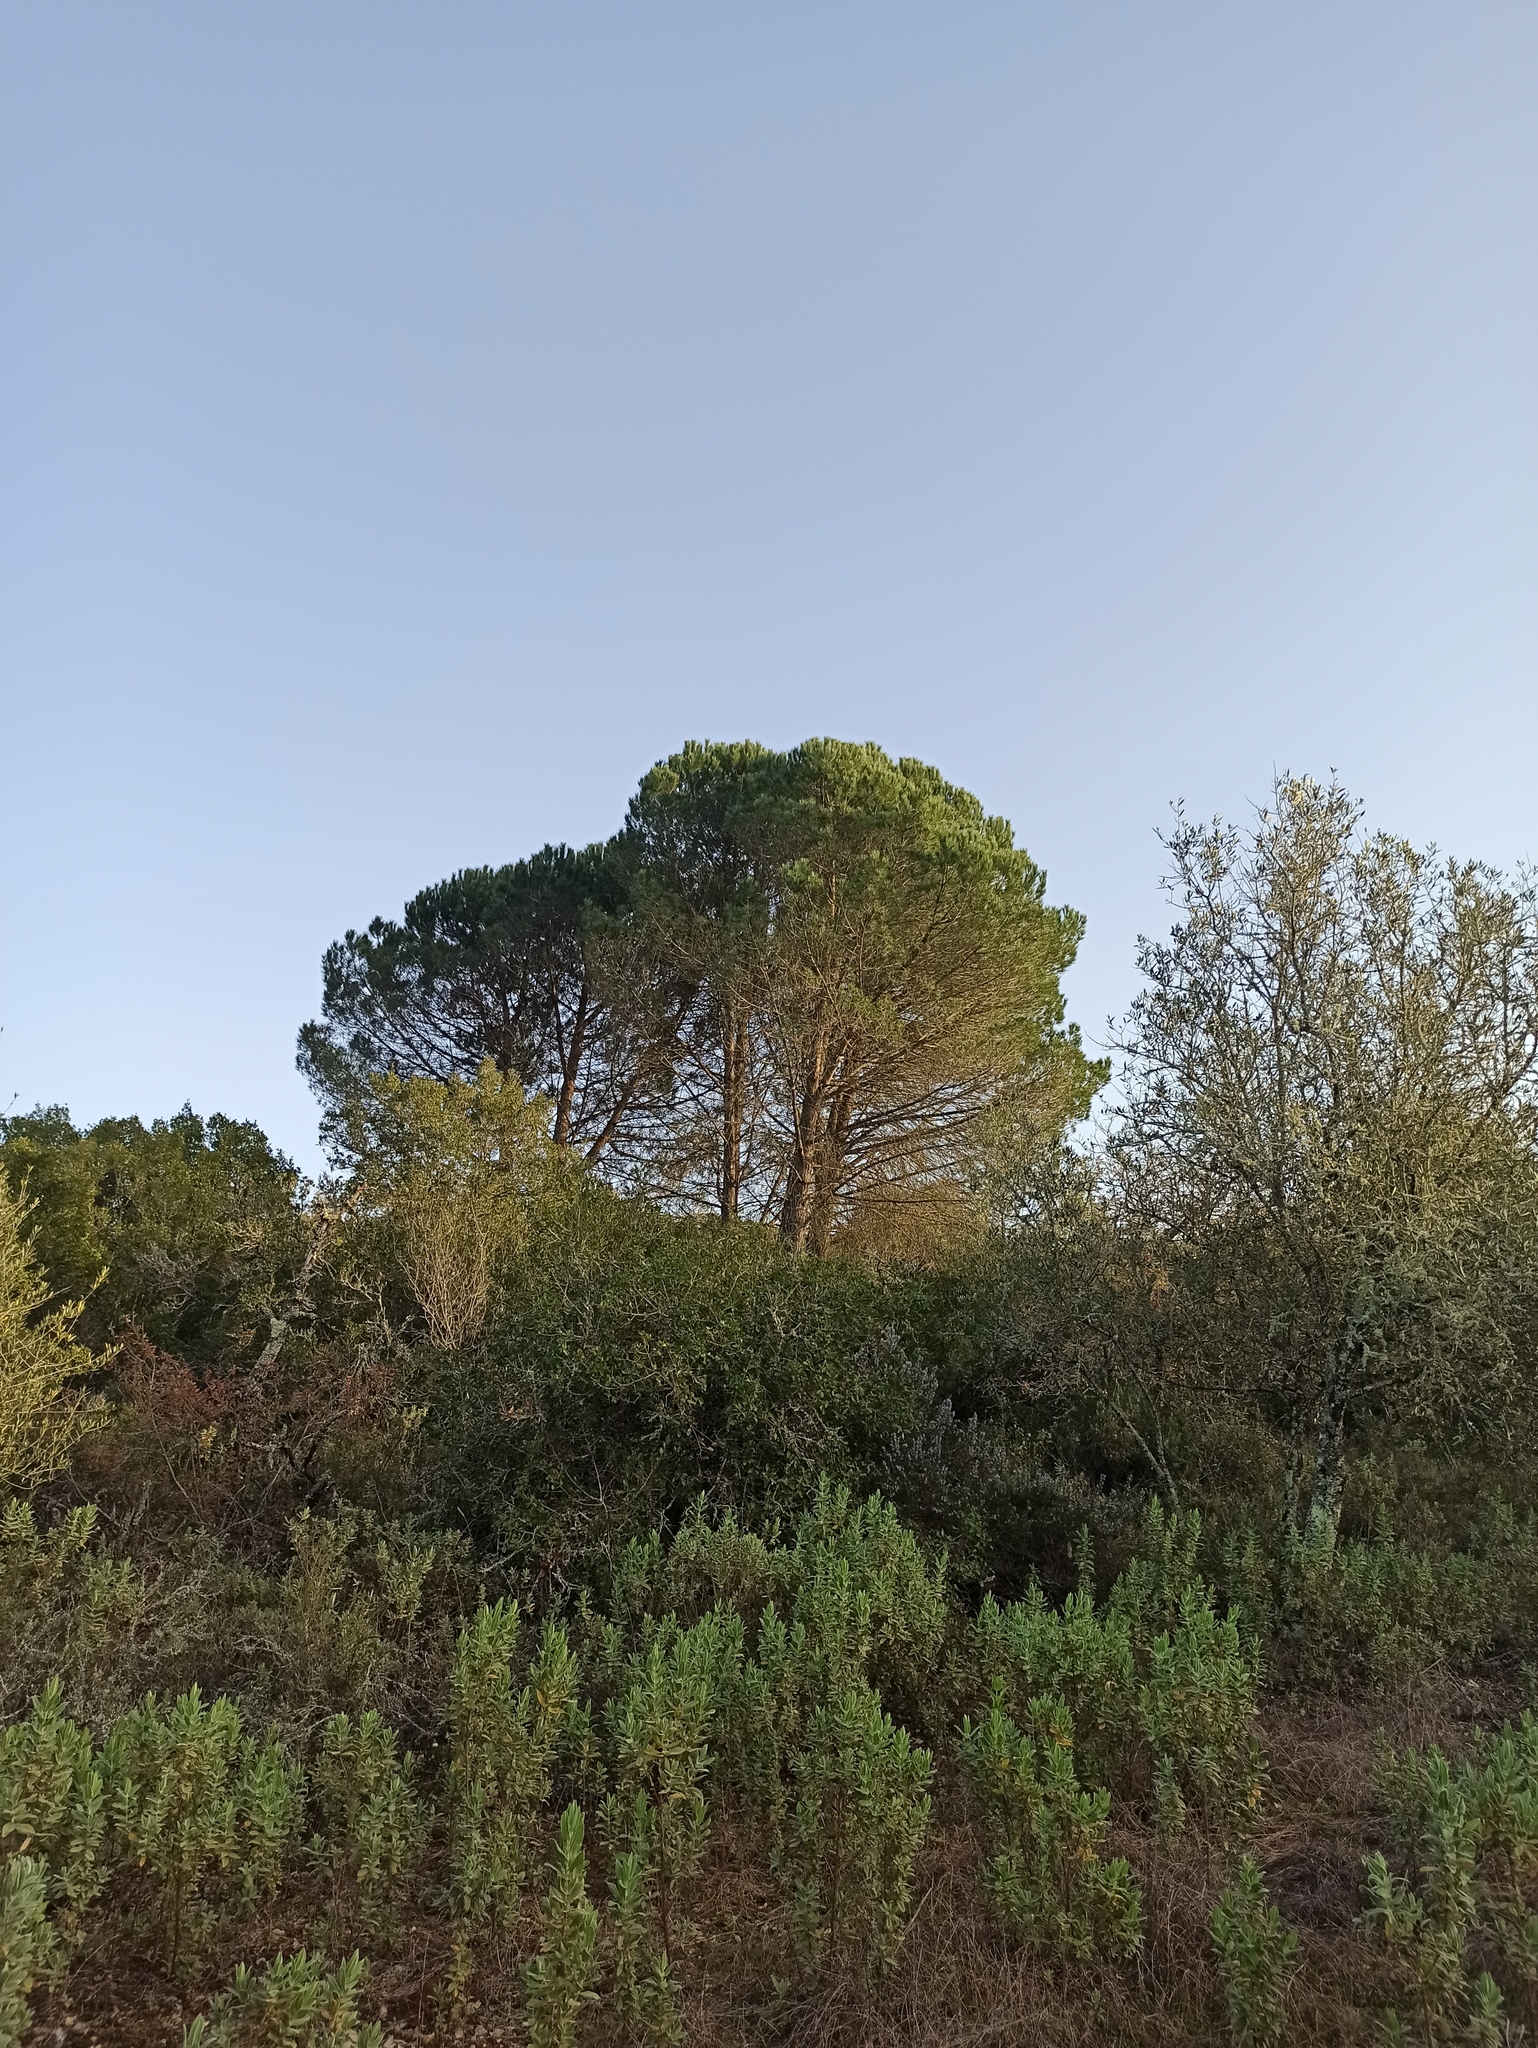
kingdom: Plantae
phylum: Tracheophyta
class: Pinopsida
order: Pinales
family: Pinaceae
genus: Pinus
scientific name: Pinus pinea
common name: Italian stone pine
